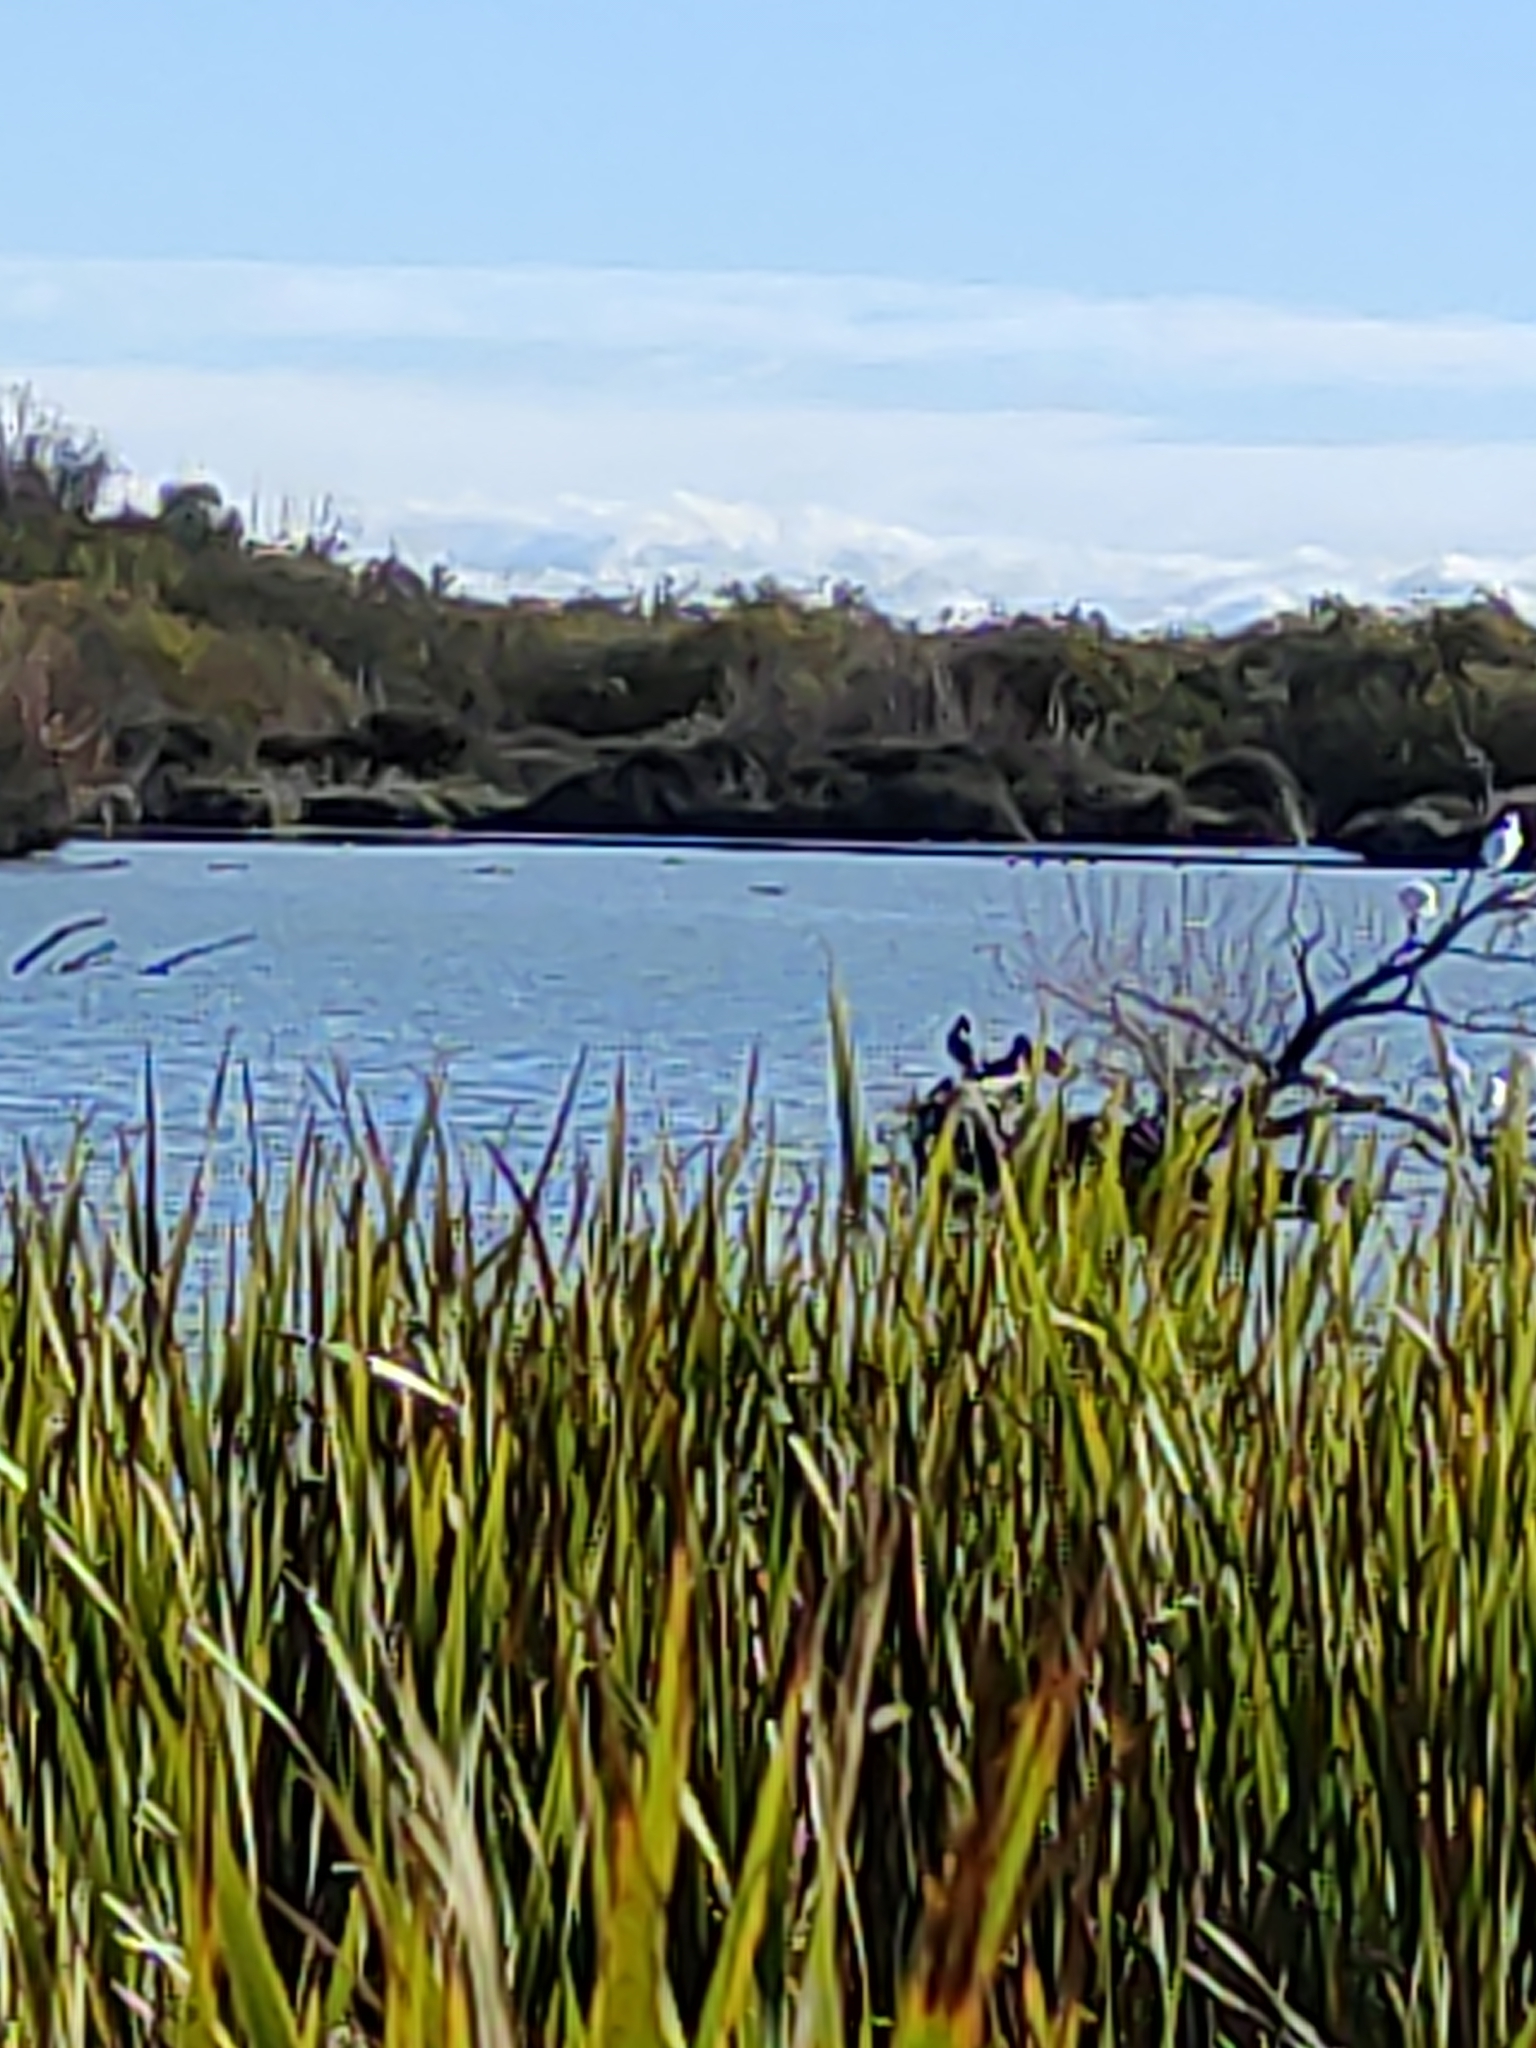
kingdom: Animalia
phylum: Chordata
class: Aves
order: Pelecaniformes
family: Threskiornithidae
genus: Platalea
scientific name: Platalea regia
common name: Royal spoonbill
